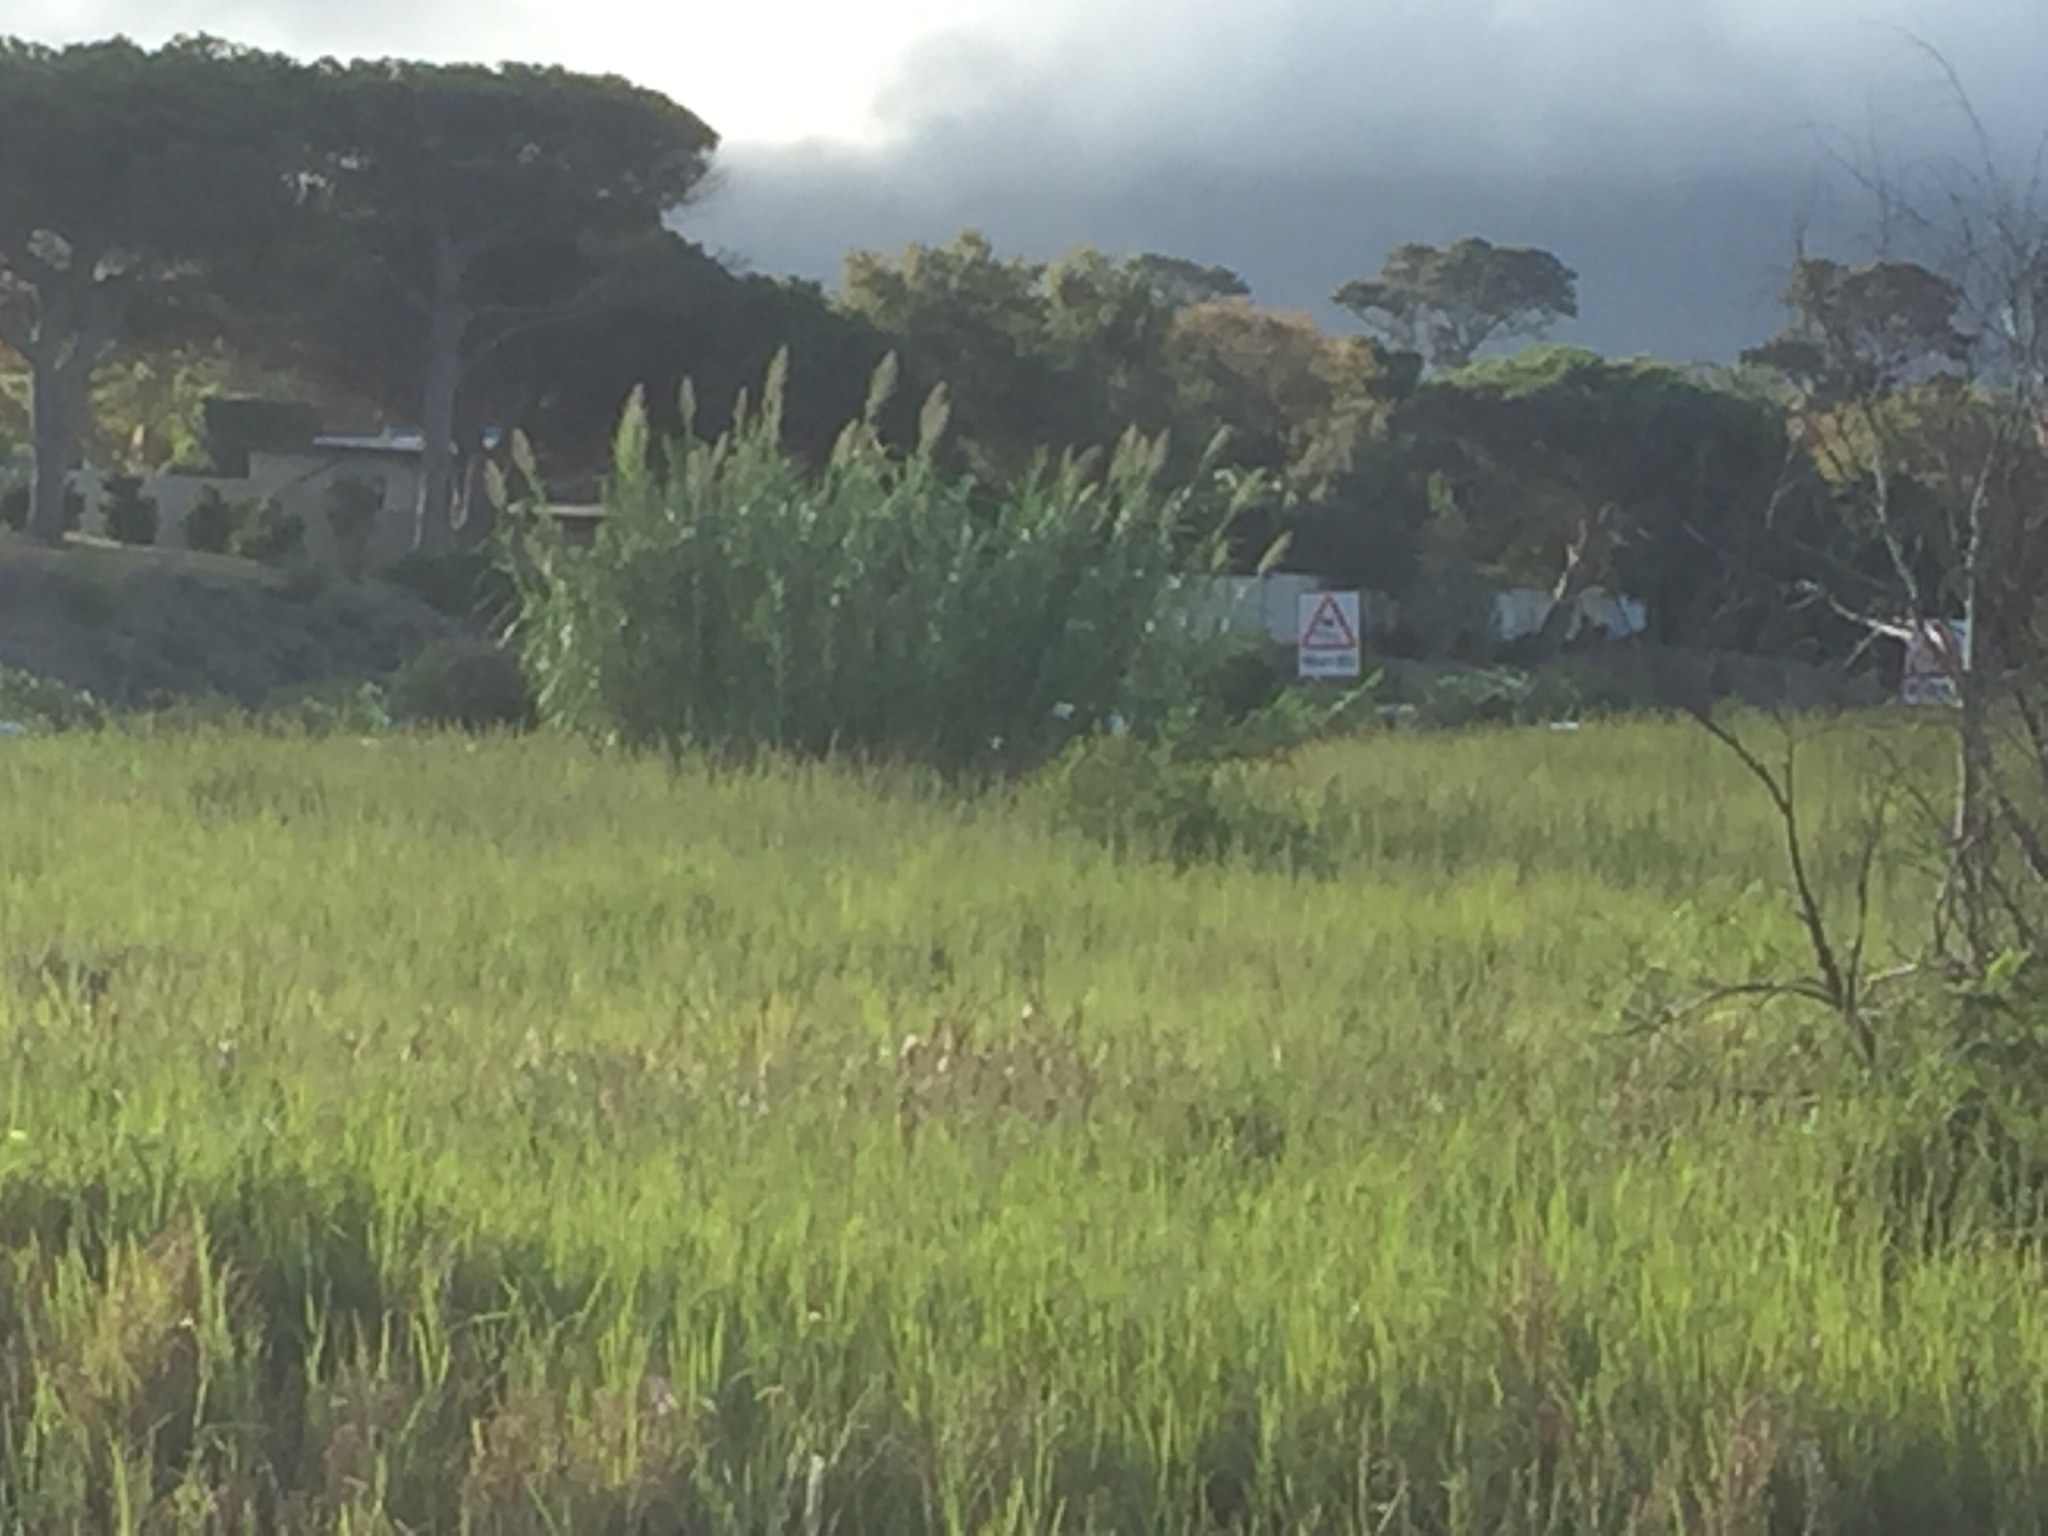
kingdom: Plantae
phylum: Tracheophyta
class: Liliopsida
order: Poales
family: Poaceae
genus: Arundo
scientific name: Arundo donax
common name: Giant reed
